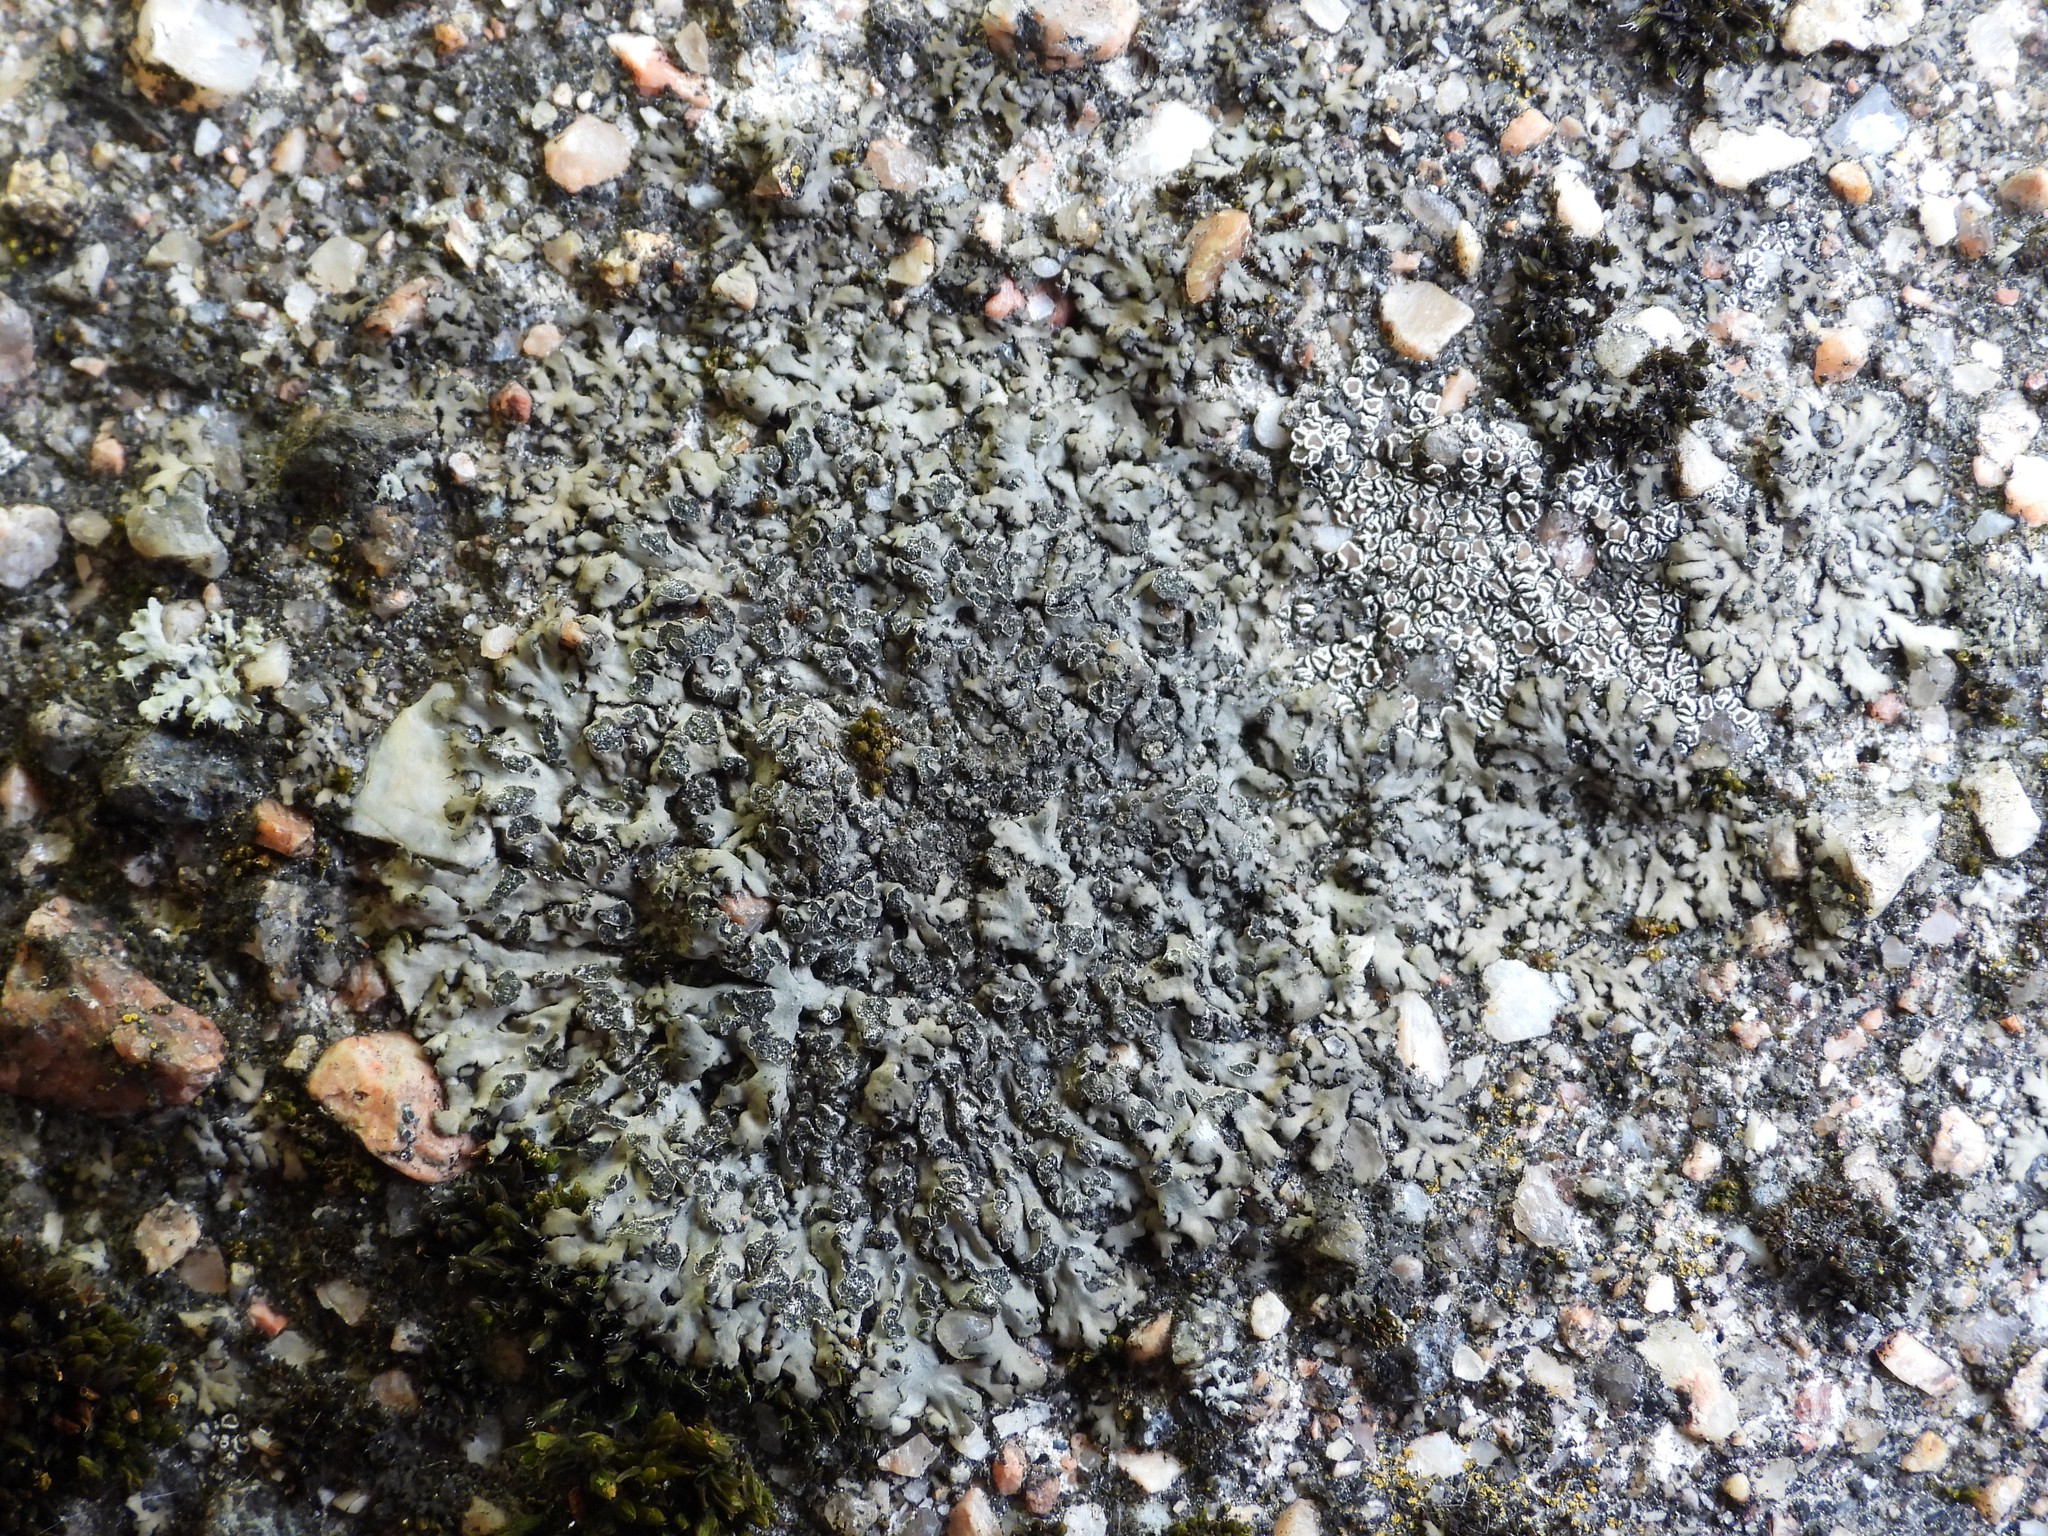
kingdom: Fungi
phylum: Ascomycota
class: Lecanoromycetes
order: Caliciales
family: Physciaceae
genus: Phaeophyscia
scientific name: Phaeophyscia orbicularis
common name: Mealy shadow lichen
